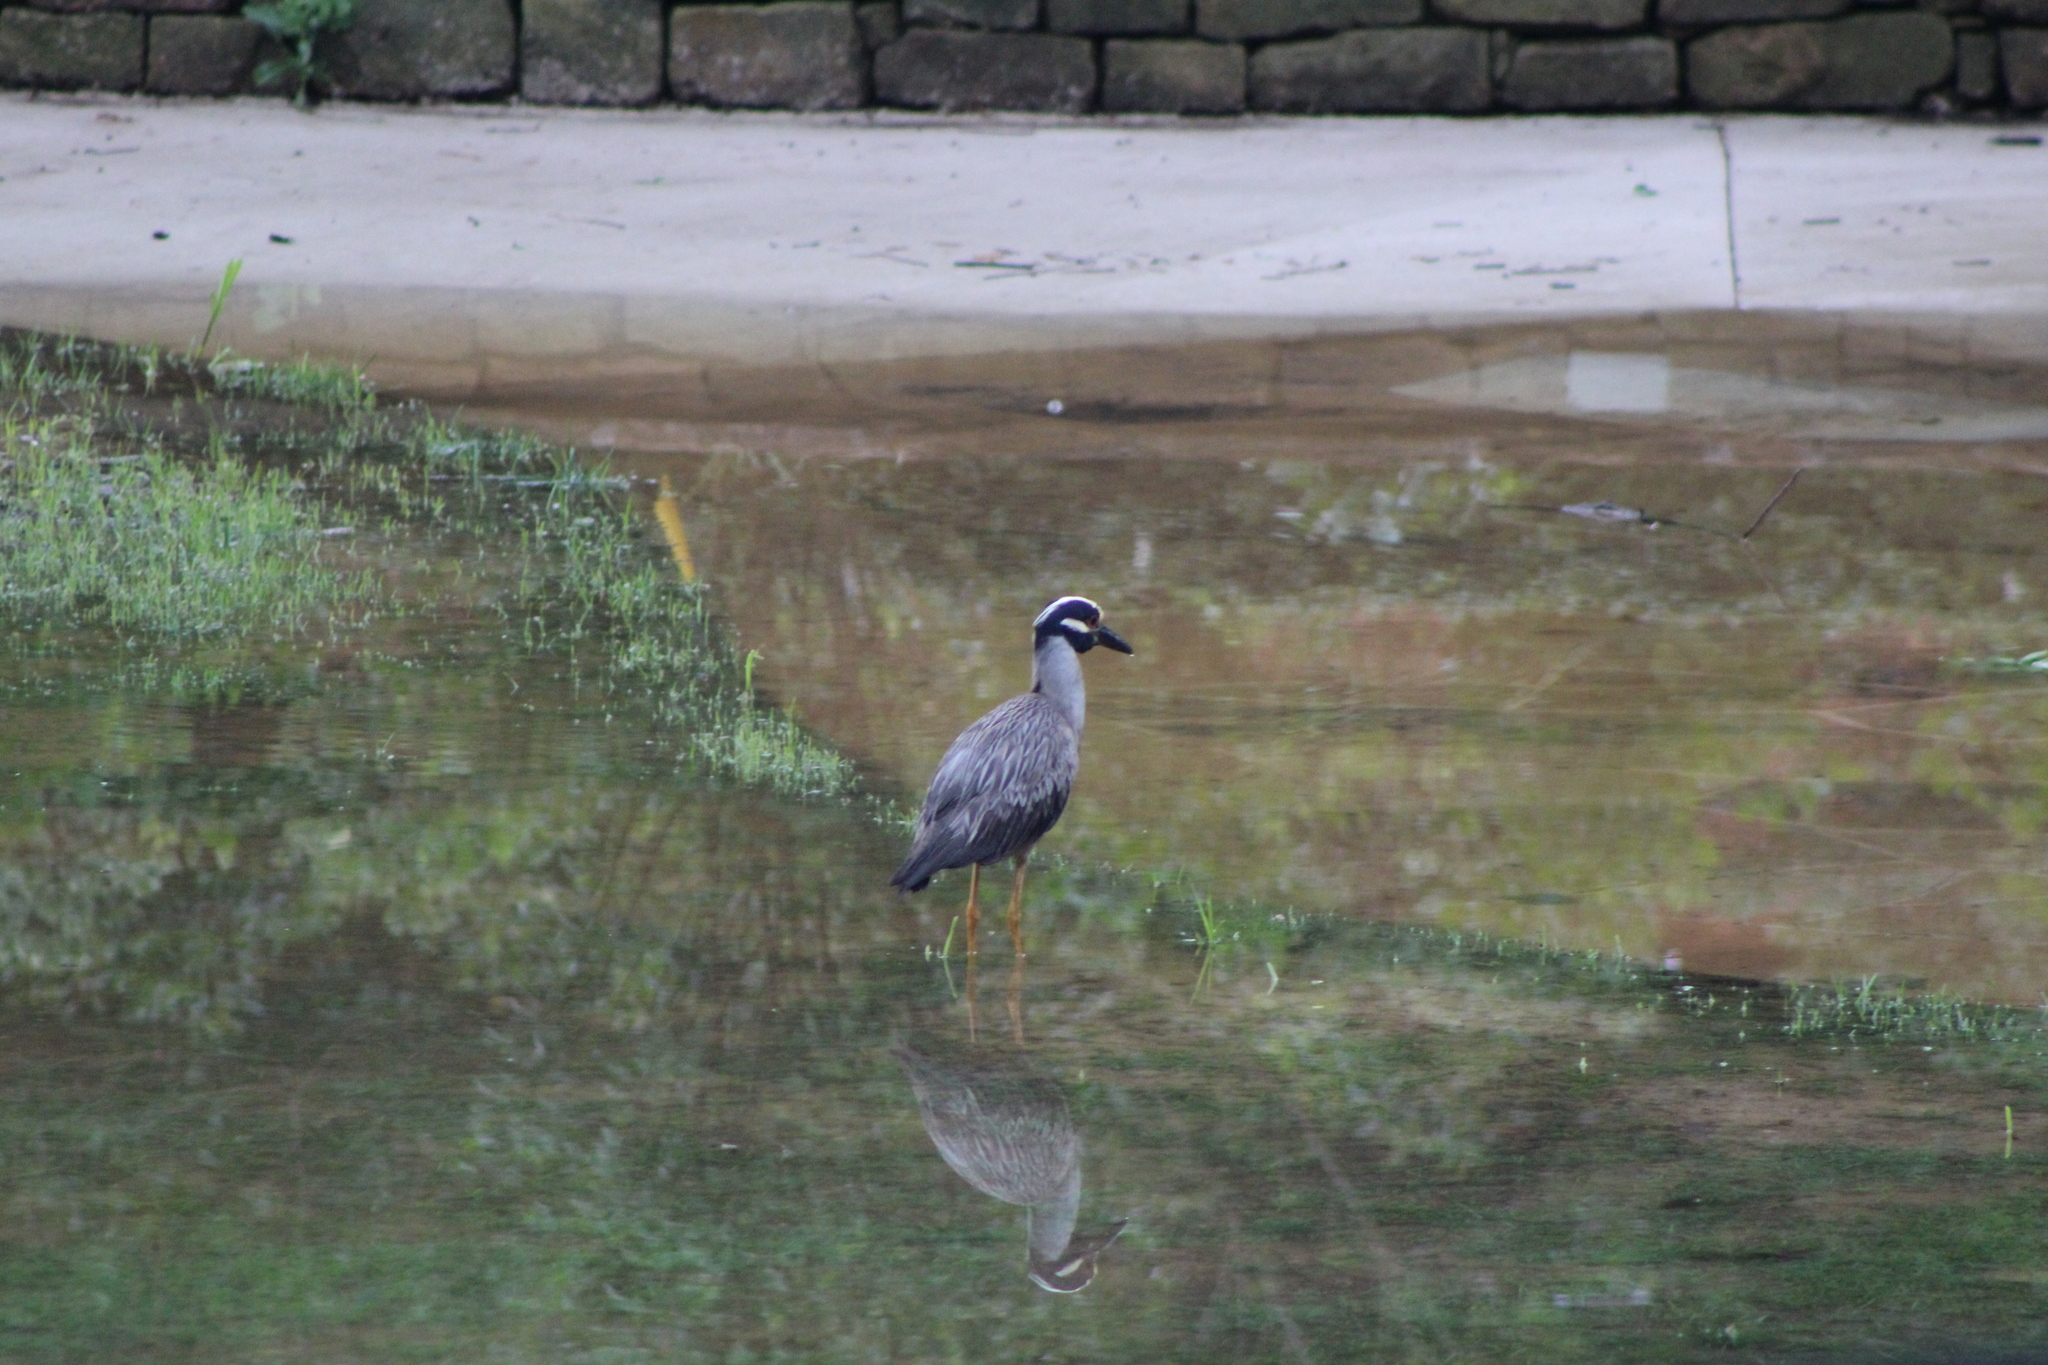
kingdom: Animalia
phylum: Chordata
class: Aves
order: Pelecaniformes
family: Ardeidae
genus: Nyctanassa
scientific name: Nyctanassa violacea
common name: Yellow-crowned night heron
